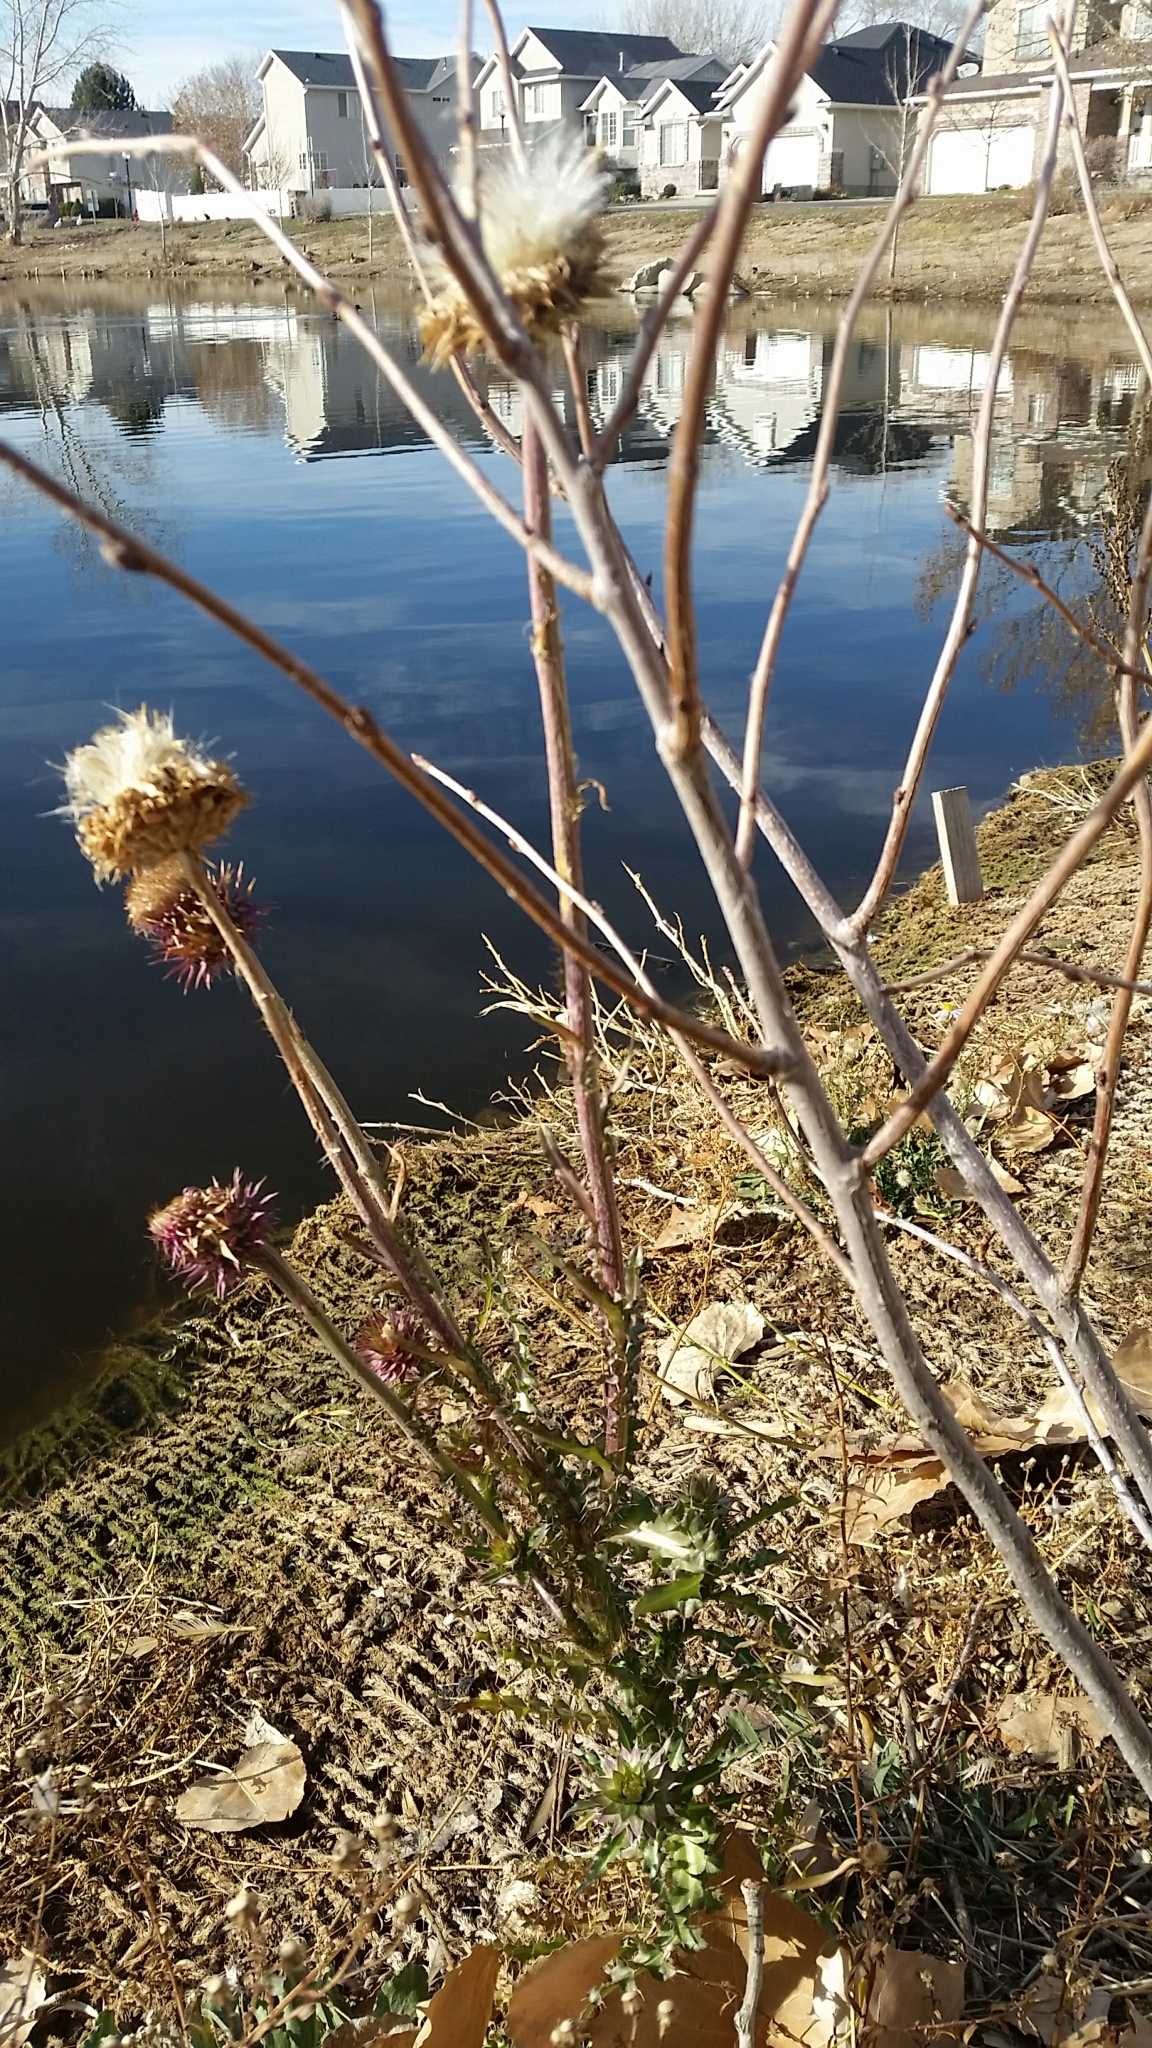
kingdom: Plantae
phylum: Tracheophyta
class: Magnoliopsida
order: Asterales
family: Asteraceae
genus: Carduus
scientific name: Carduus nutans
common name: Musk thistle
